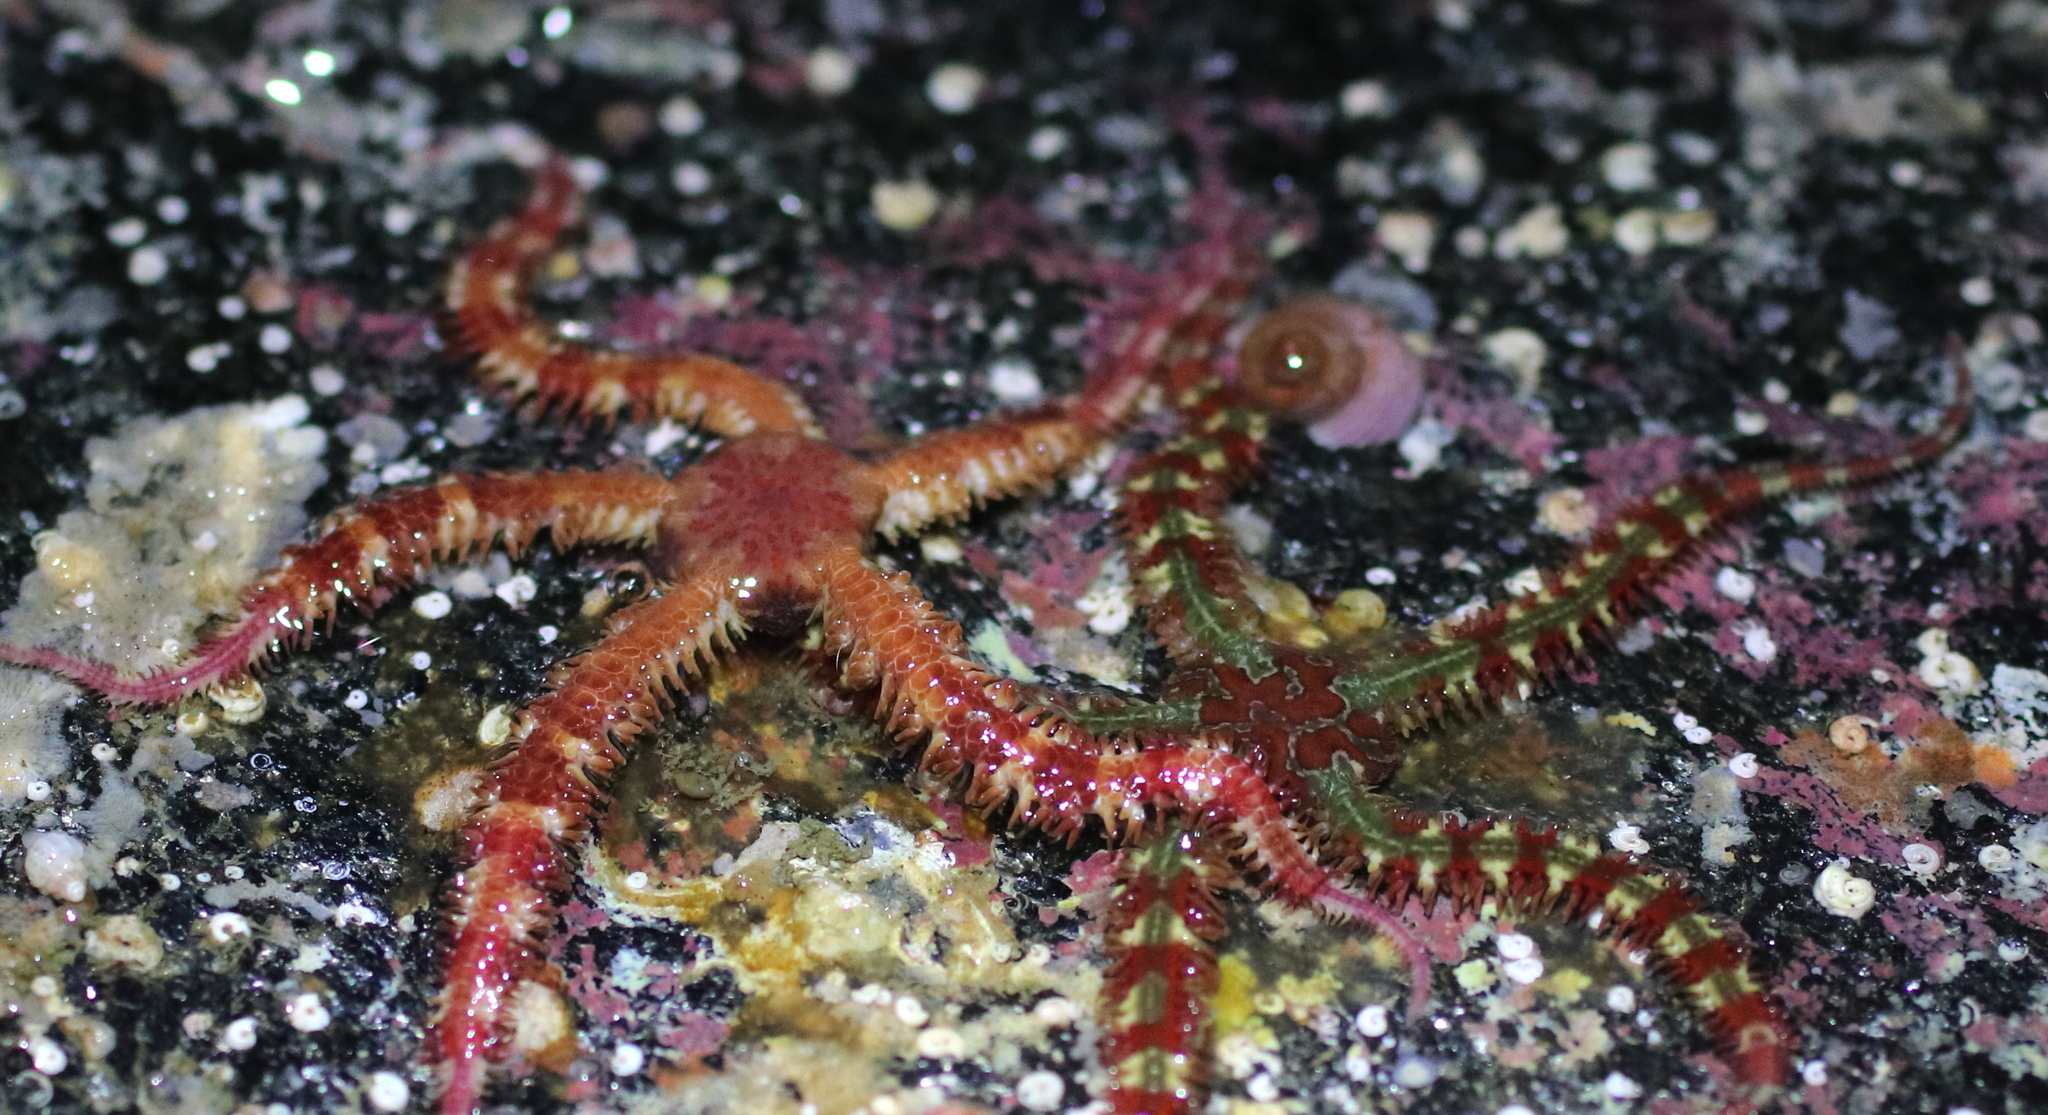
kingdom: Animalia
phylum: Echinodermata
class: Ophiuroidea
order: Amphilepidida
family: Ophiopholidae
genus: Ophiopholis
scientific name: Ophiopholis kennerlyi
